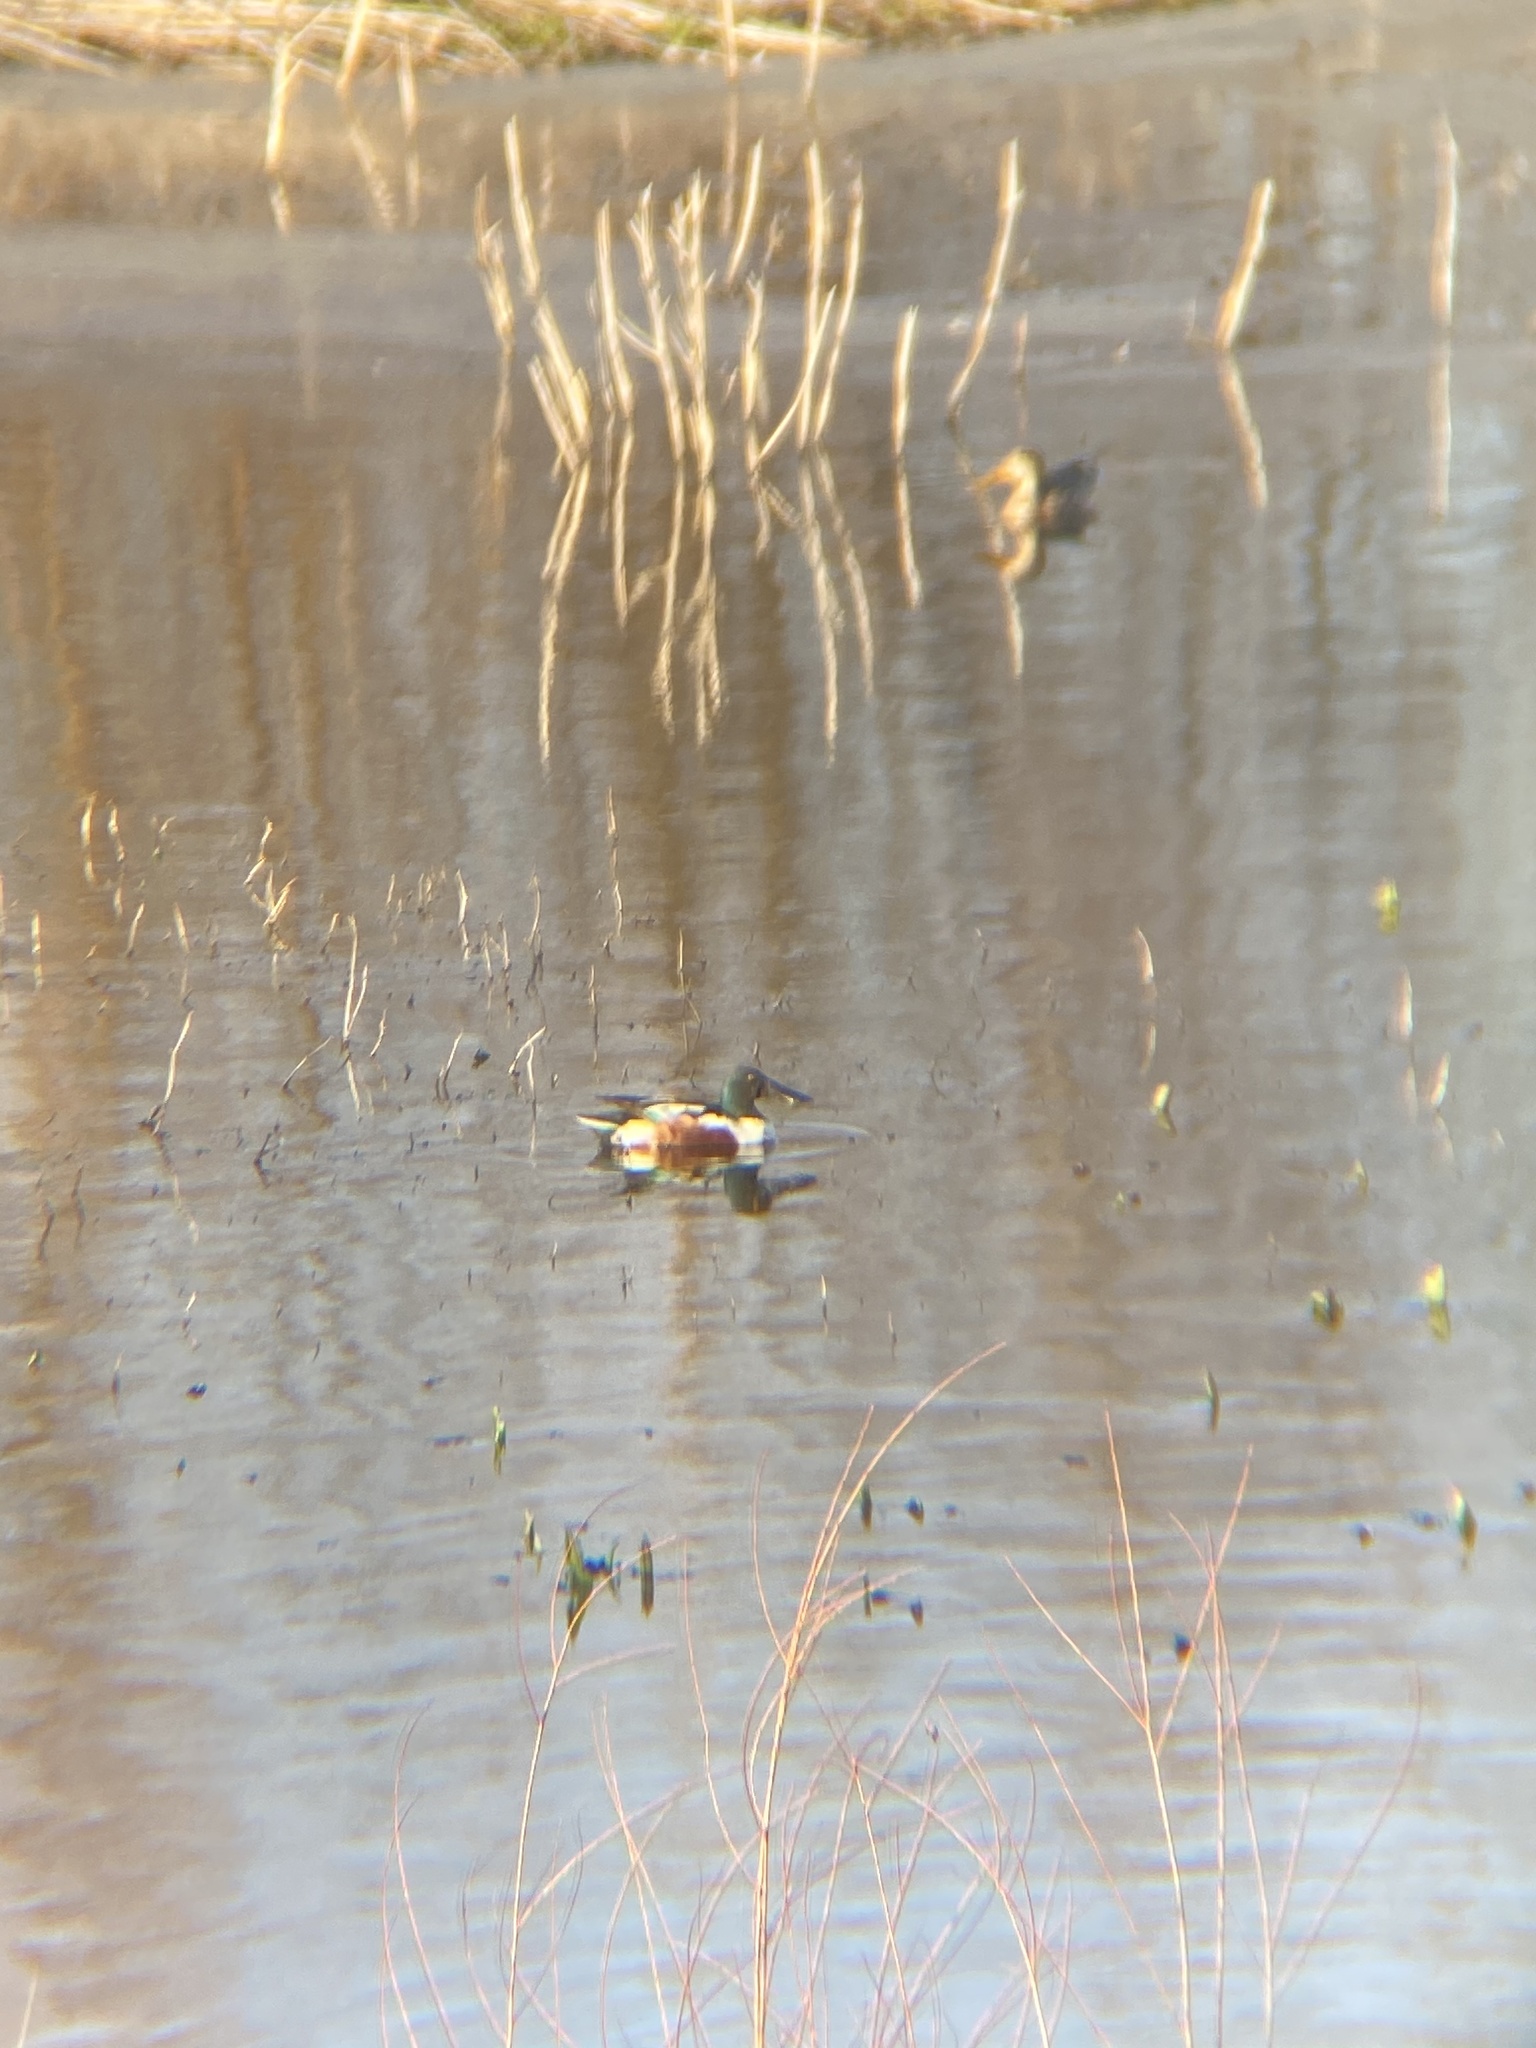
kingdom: Animalia
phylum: Chordata
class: Aves
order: Anseriformes
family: Anatidae
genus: Spatula
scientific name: Spatula clypeata
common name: Northern shoveler
